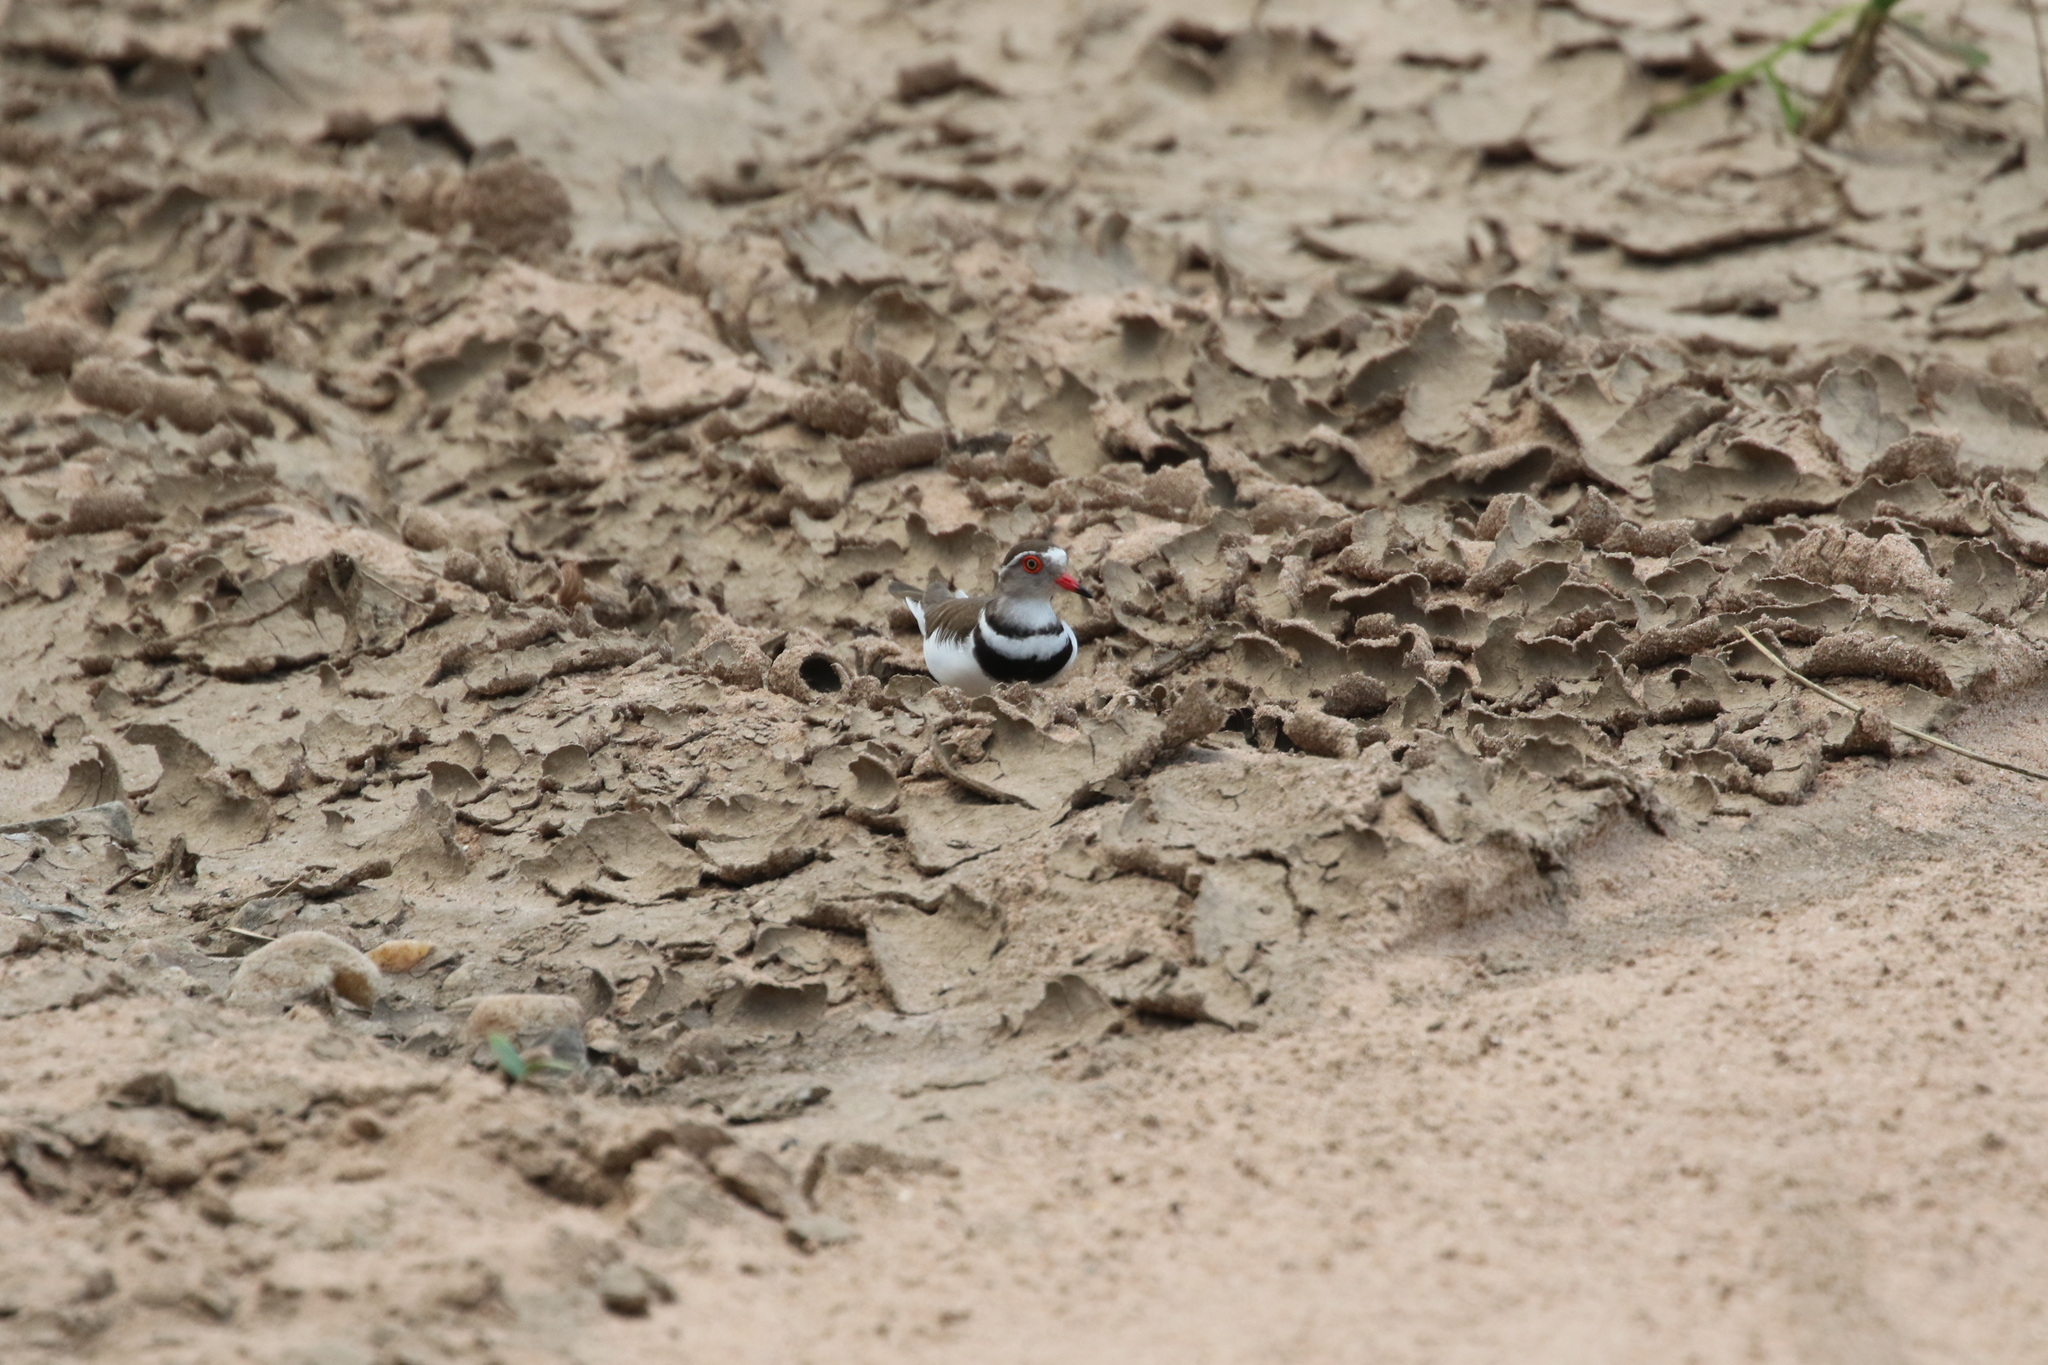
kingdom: Animalia
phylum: Chordata
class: Aves
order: Charadriiformes
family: Charadriidae
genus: Charadrius
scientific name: Charadrius tricollaris
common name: Three-banded plover
